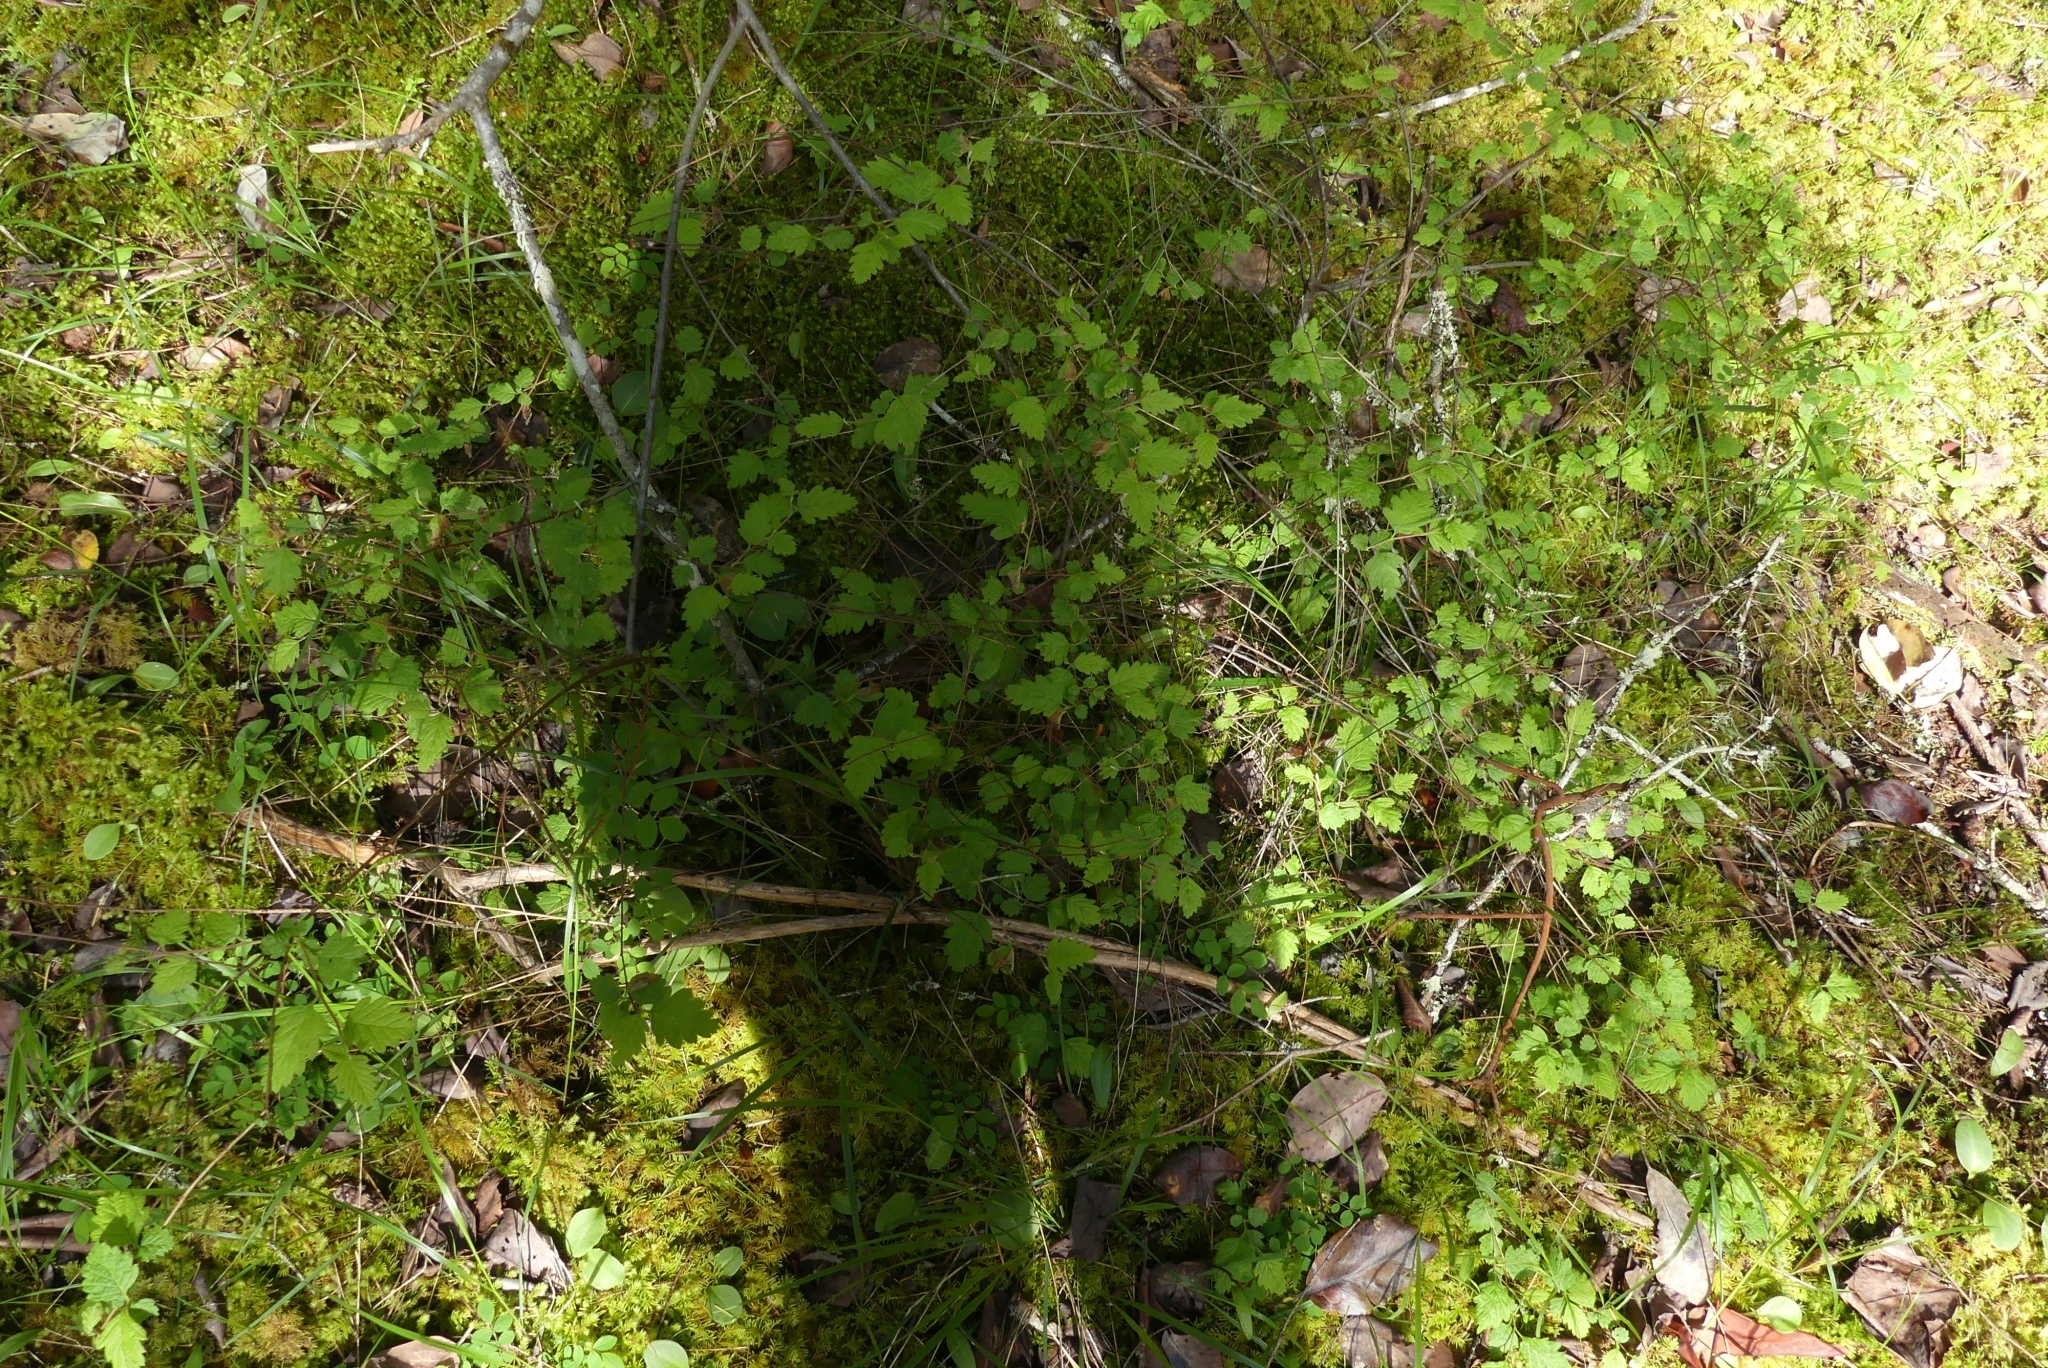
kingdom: Plantae
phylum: Tracheophyta
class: Magnoliopsida
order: Rosales
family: Rosaceae
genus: Holodiscus
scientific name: Holodiscus discolor
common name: Oceanspray
